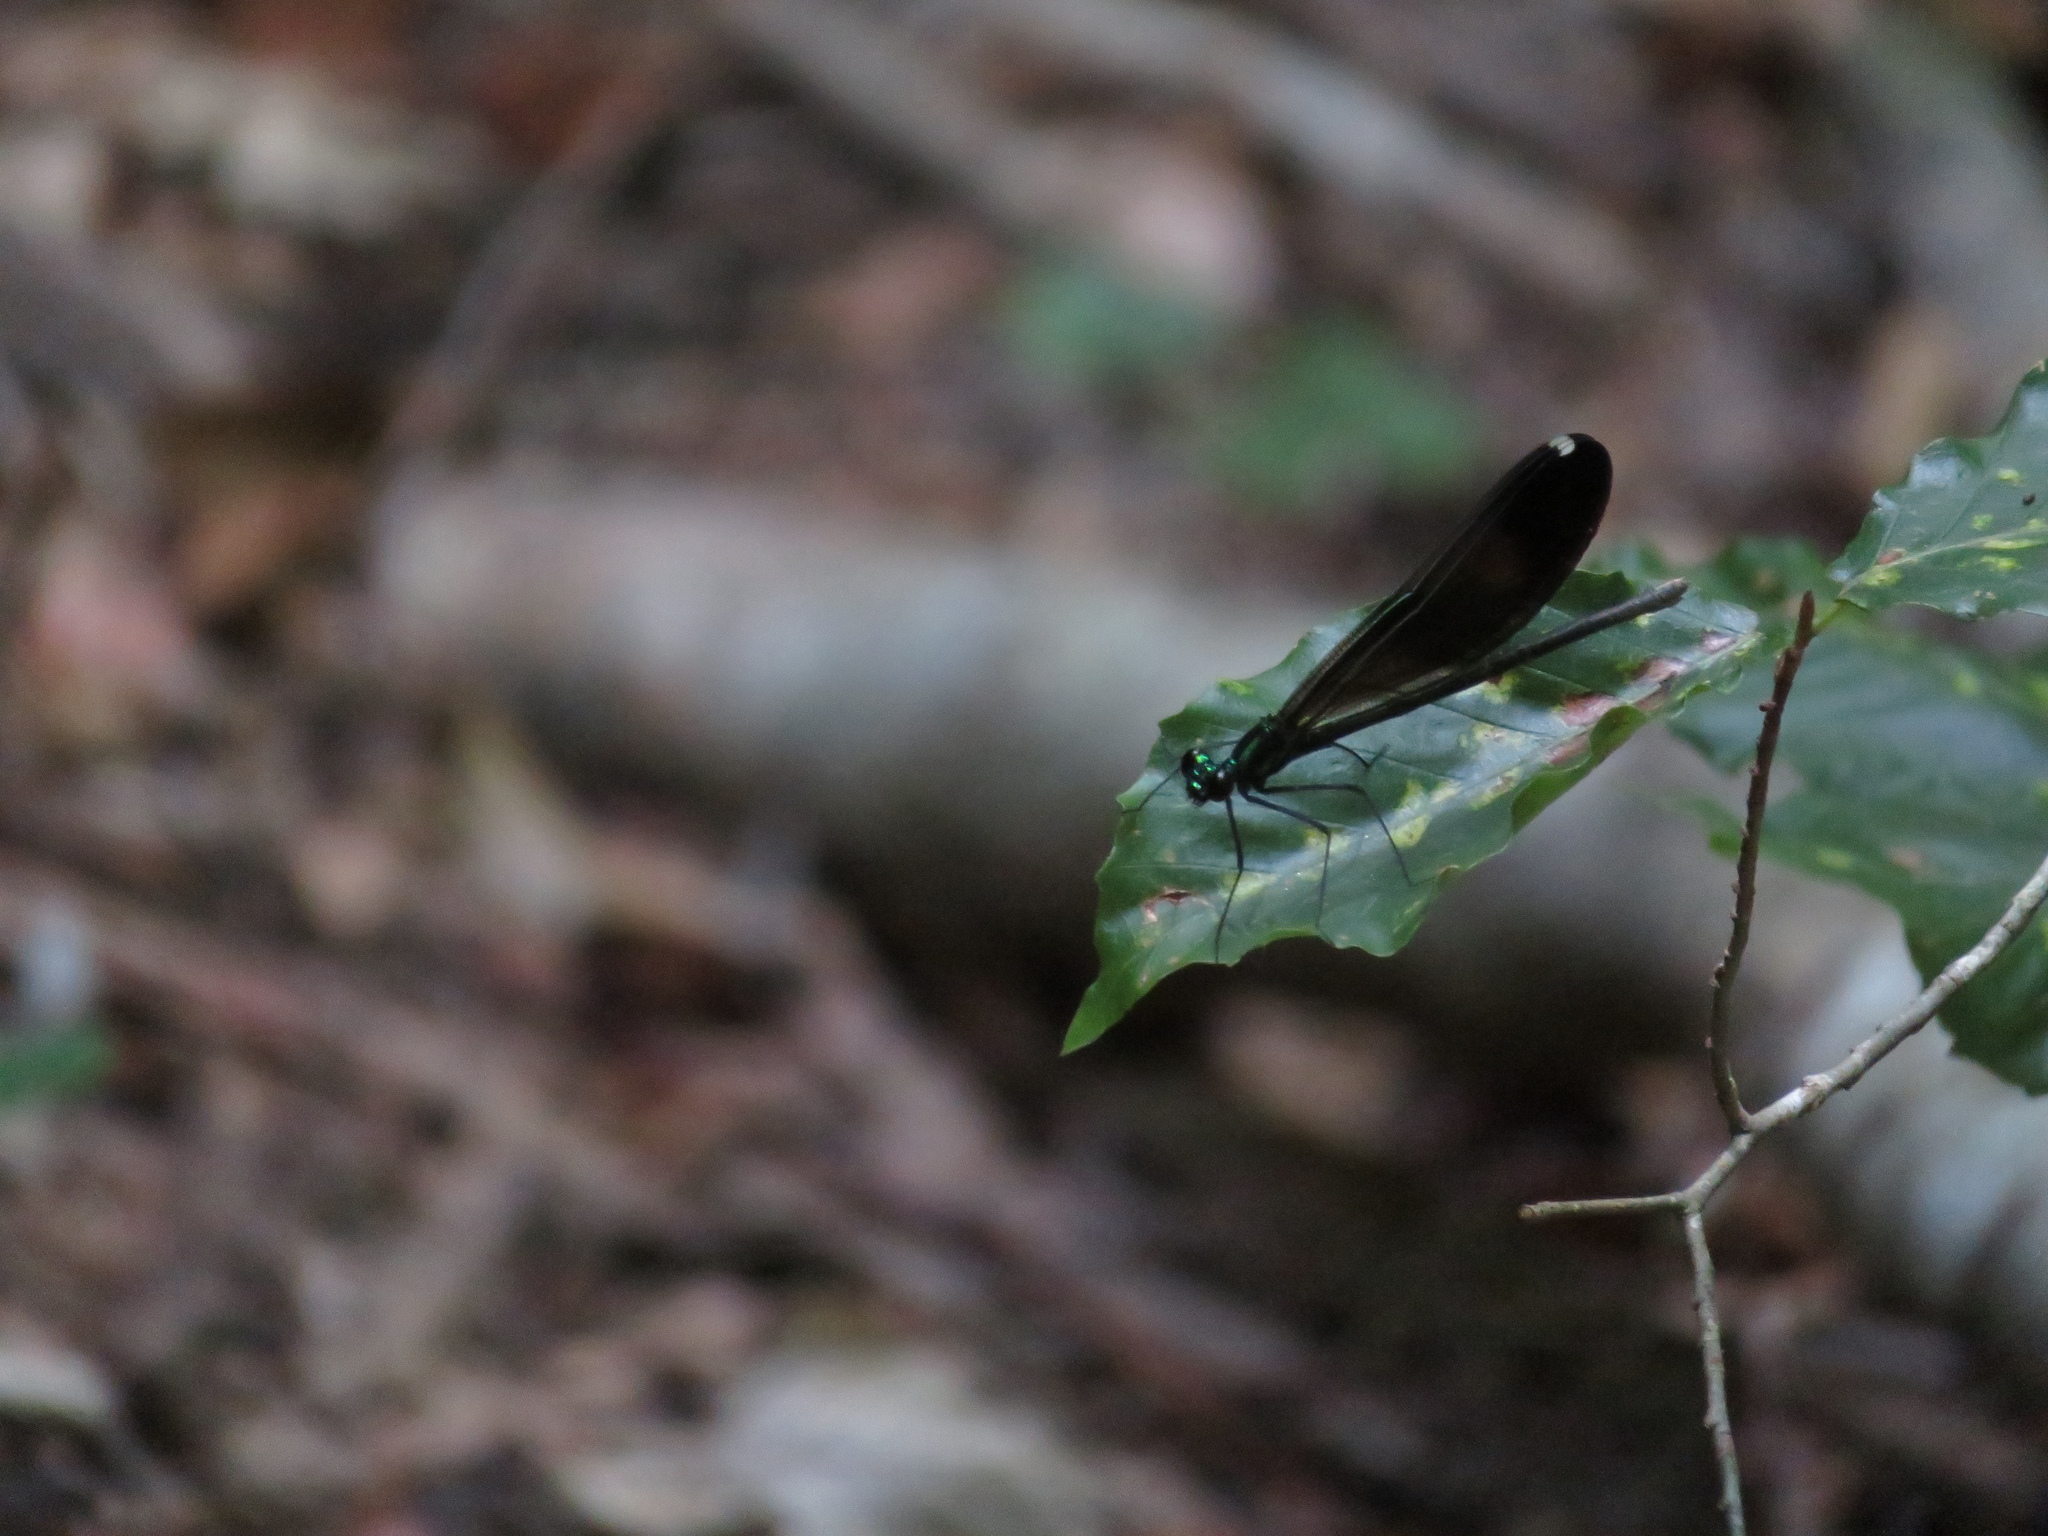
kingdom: Animalia
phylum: Arthropoda
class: Insecta
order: Odonata
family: Calopterygidae
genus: Calopteryx
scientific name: Calopteryx maculata
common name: Ebony jewelwing
